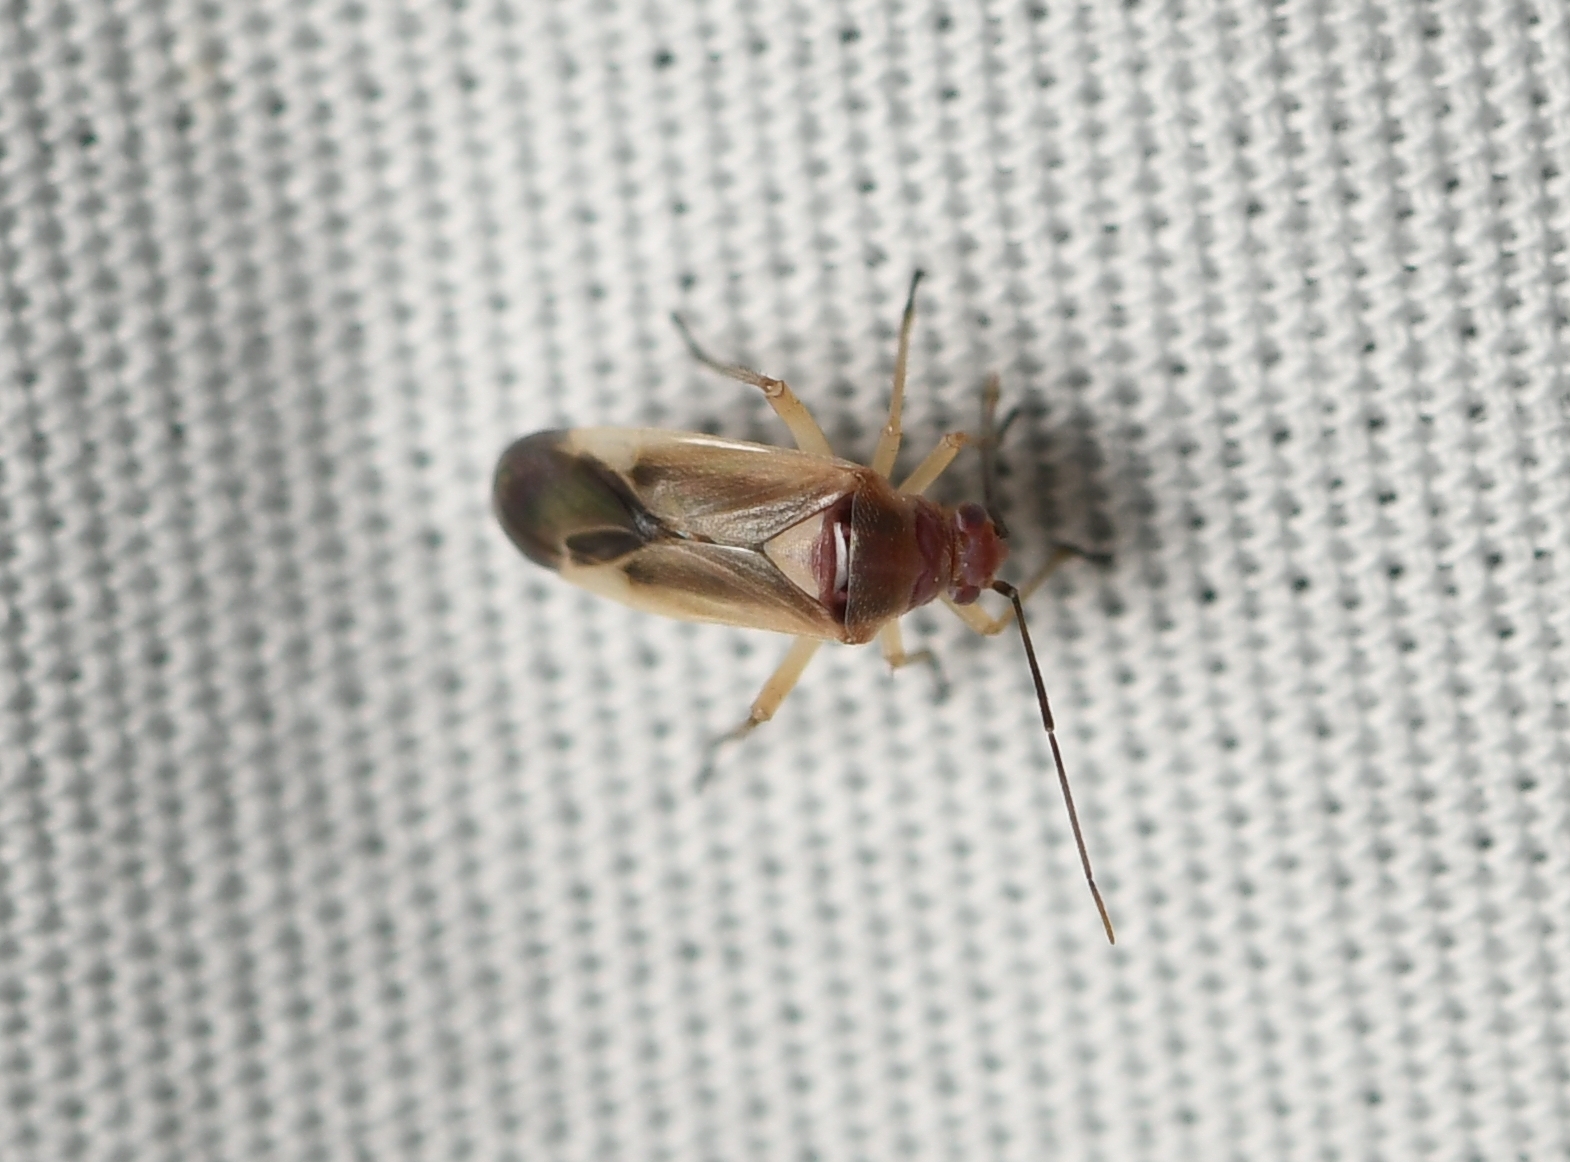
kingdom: Animalia
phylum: Arthropoda
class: Insecta
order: Hemiptera
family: Miridae
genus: Nicholia
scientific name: Nicholia eriogoni
